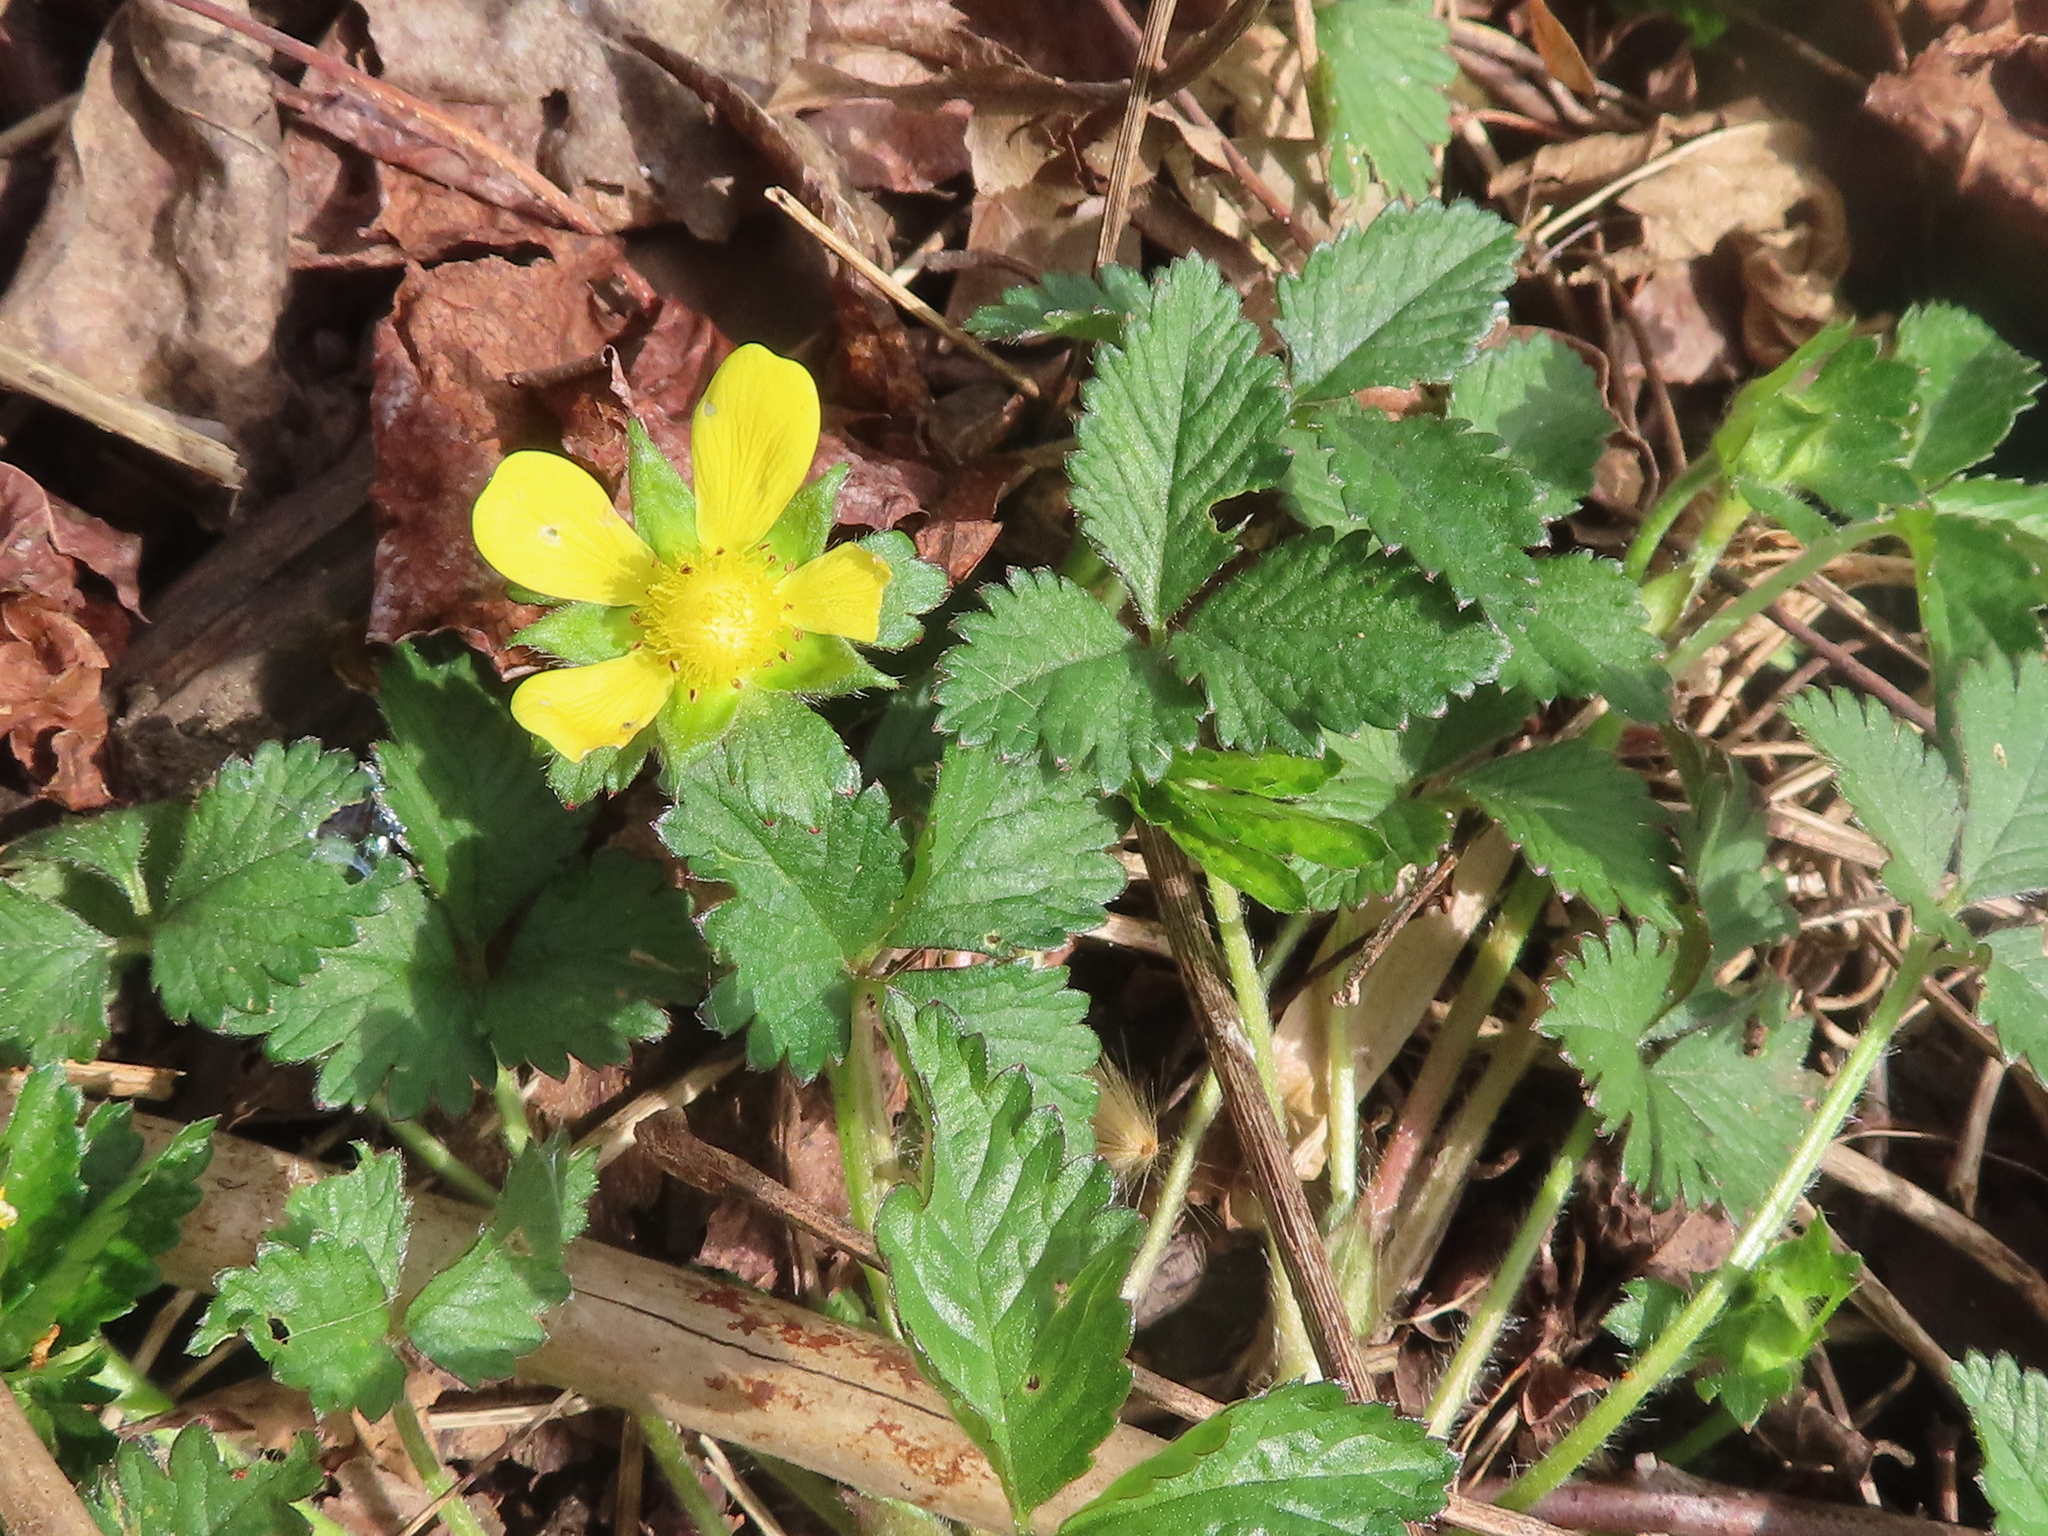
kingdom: Plantae
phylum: Tracheophyta
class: Magnoliopsida
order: Rosales
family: Rosaceae
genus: Potentilla
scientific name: Potentilla indica
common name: Yellow-flowered strawberry
